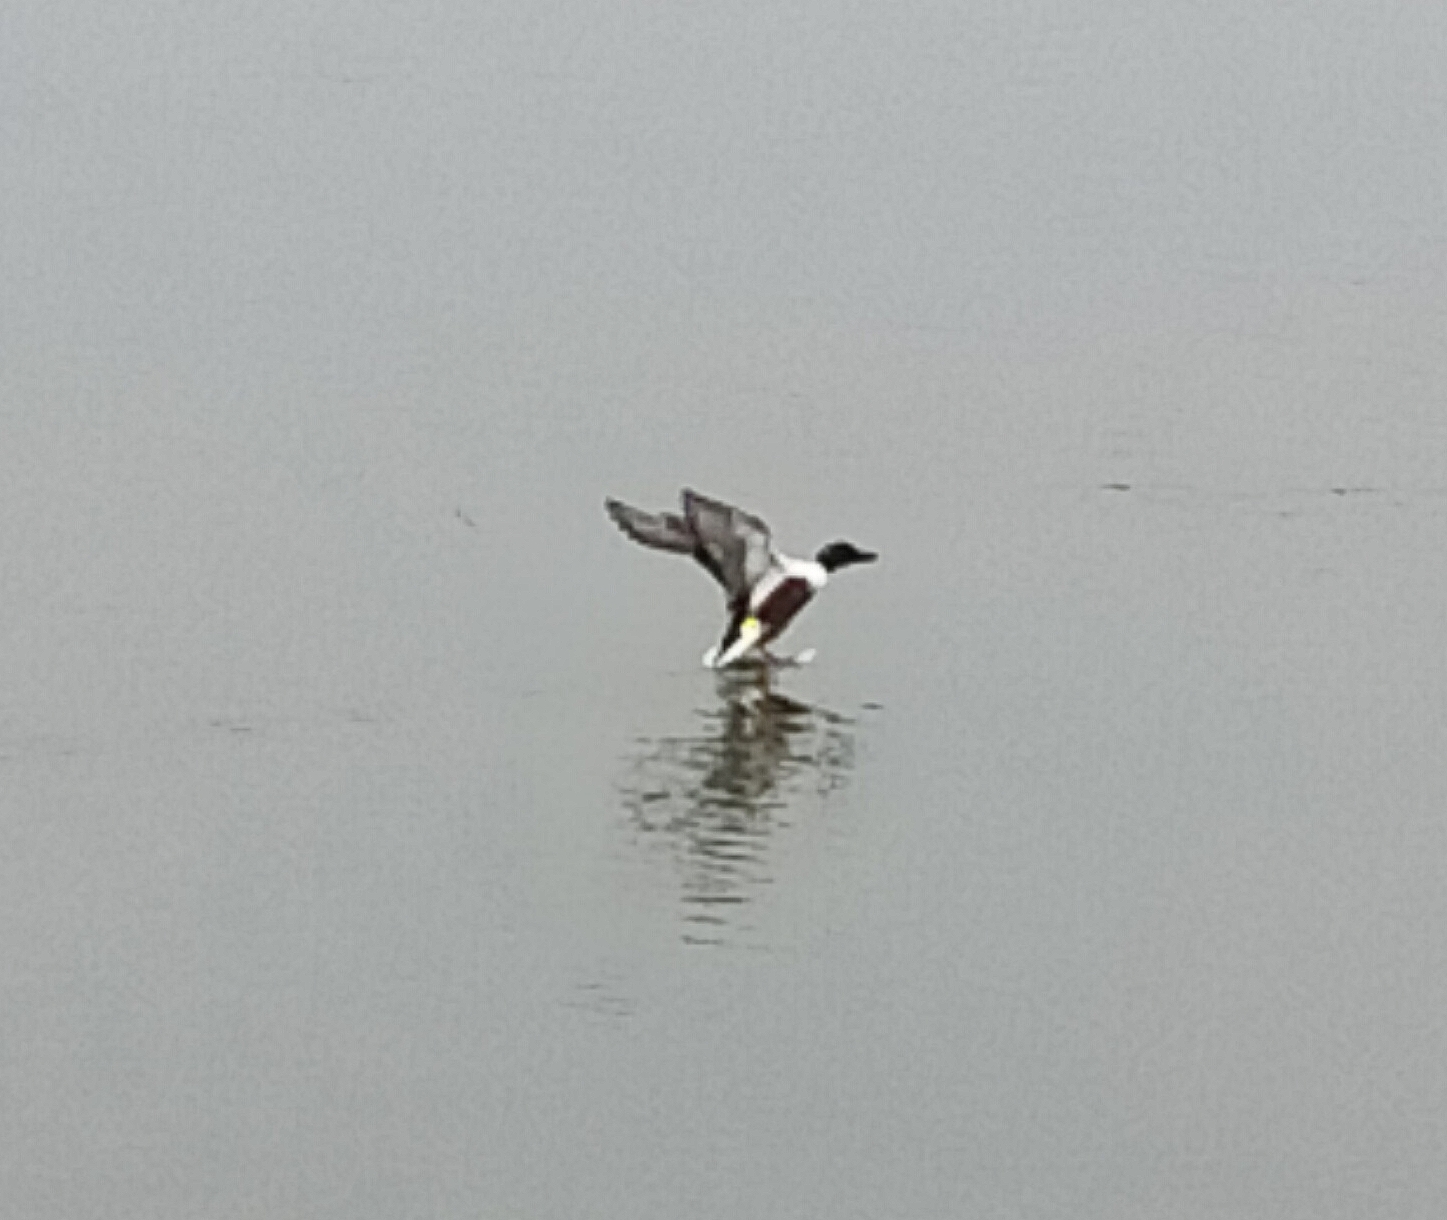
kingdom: Animalia
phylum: Chordata
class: Aves
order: Anseriformes
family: Anatidae
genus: Spatula
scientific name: Spatula clypeata
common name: Northern shoveler
